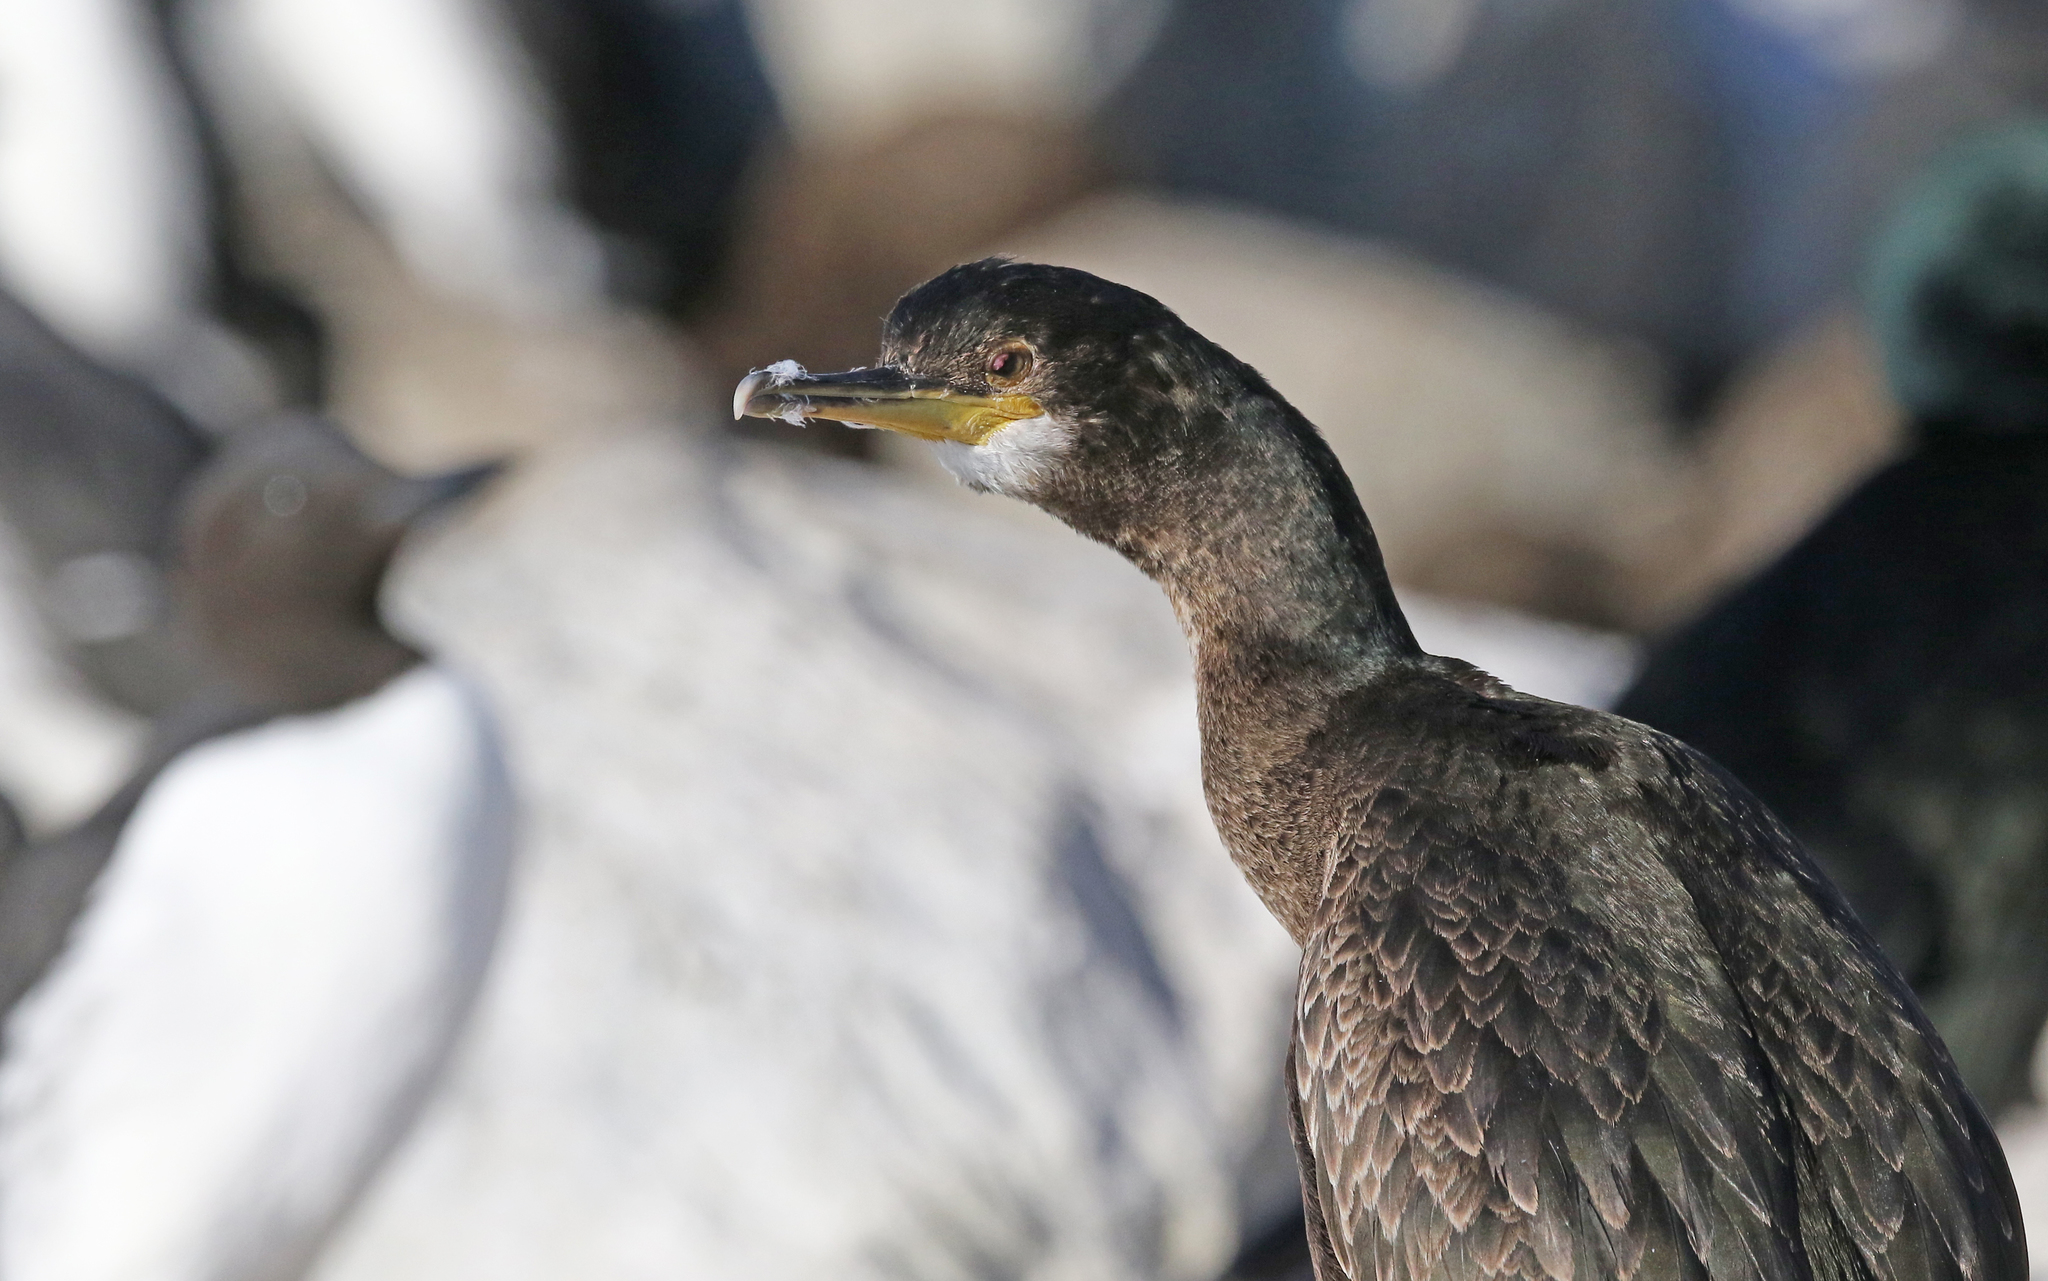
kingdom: Animalia
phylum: Chordata
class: Aves
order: Suliformes
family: Phalacrocoracidae
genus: Phalacrocorax
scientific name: Phalacrocorax aristotelis
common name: European shag
